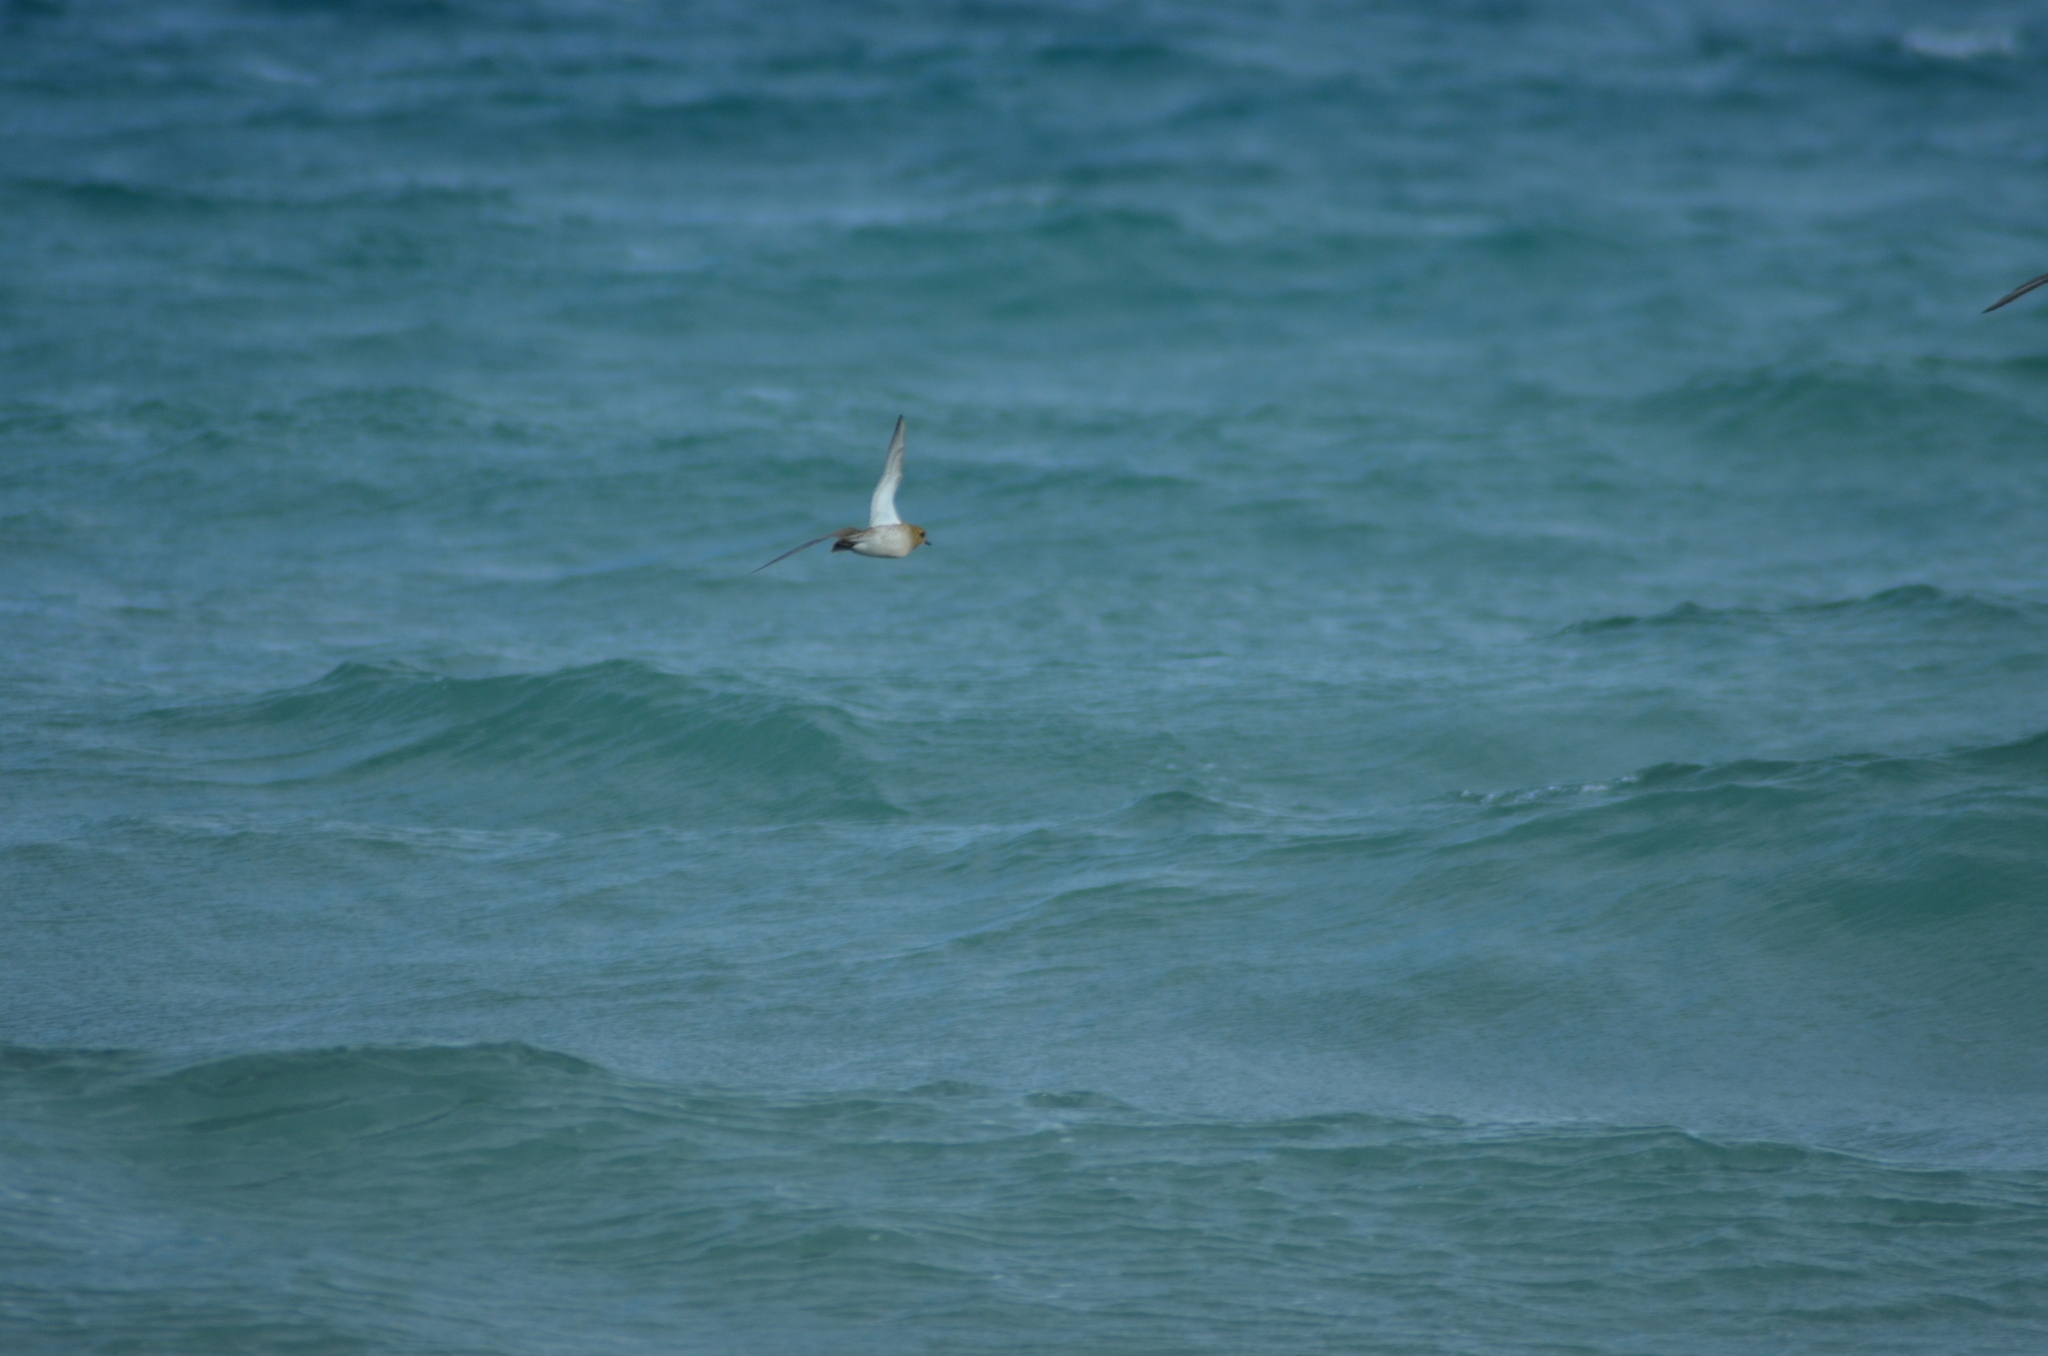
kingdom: Animalia
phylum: Chordata
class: Aves
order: Charadriiformes
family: Charadriidae
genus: Pluvialis
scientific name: Pluvialis apricaria
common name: European golden plover
